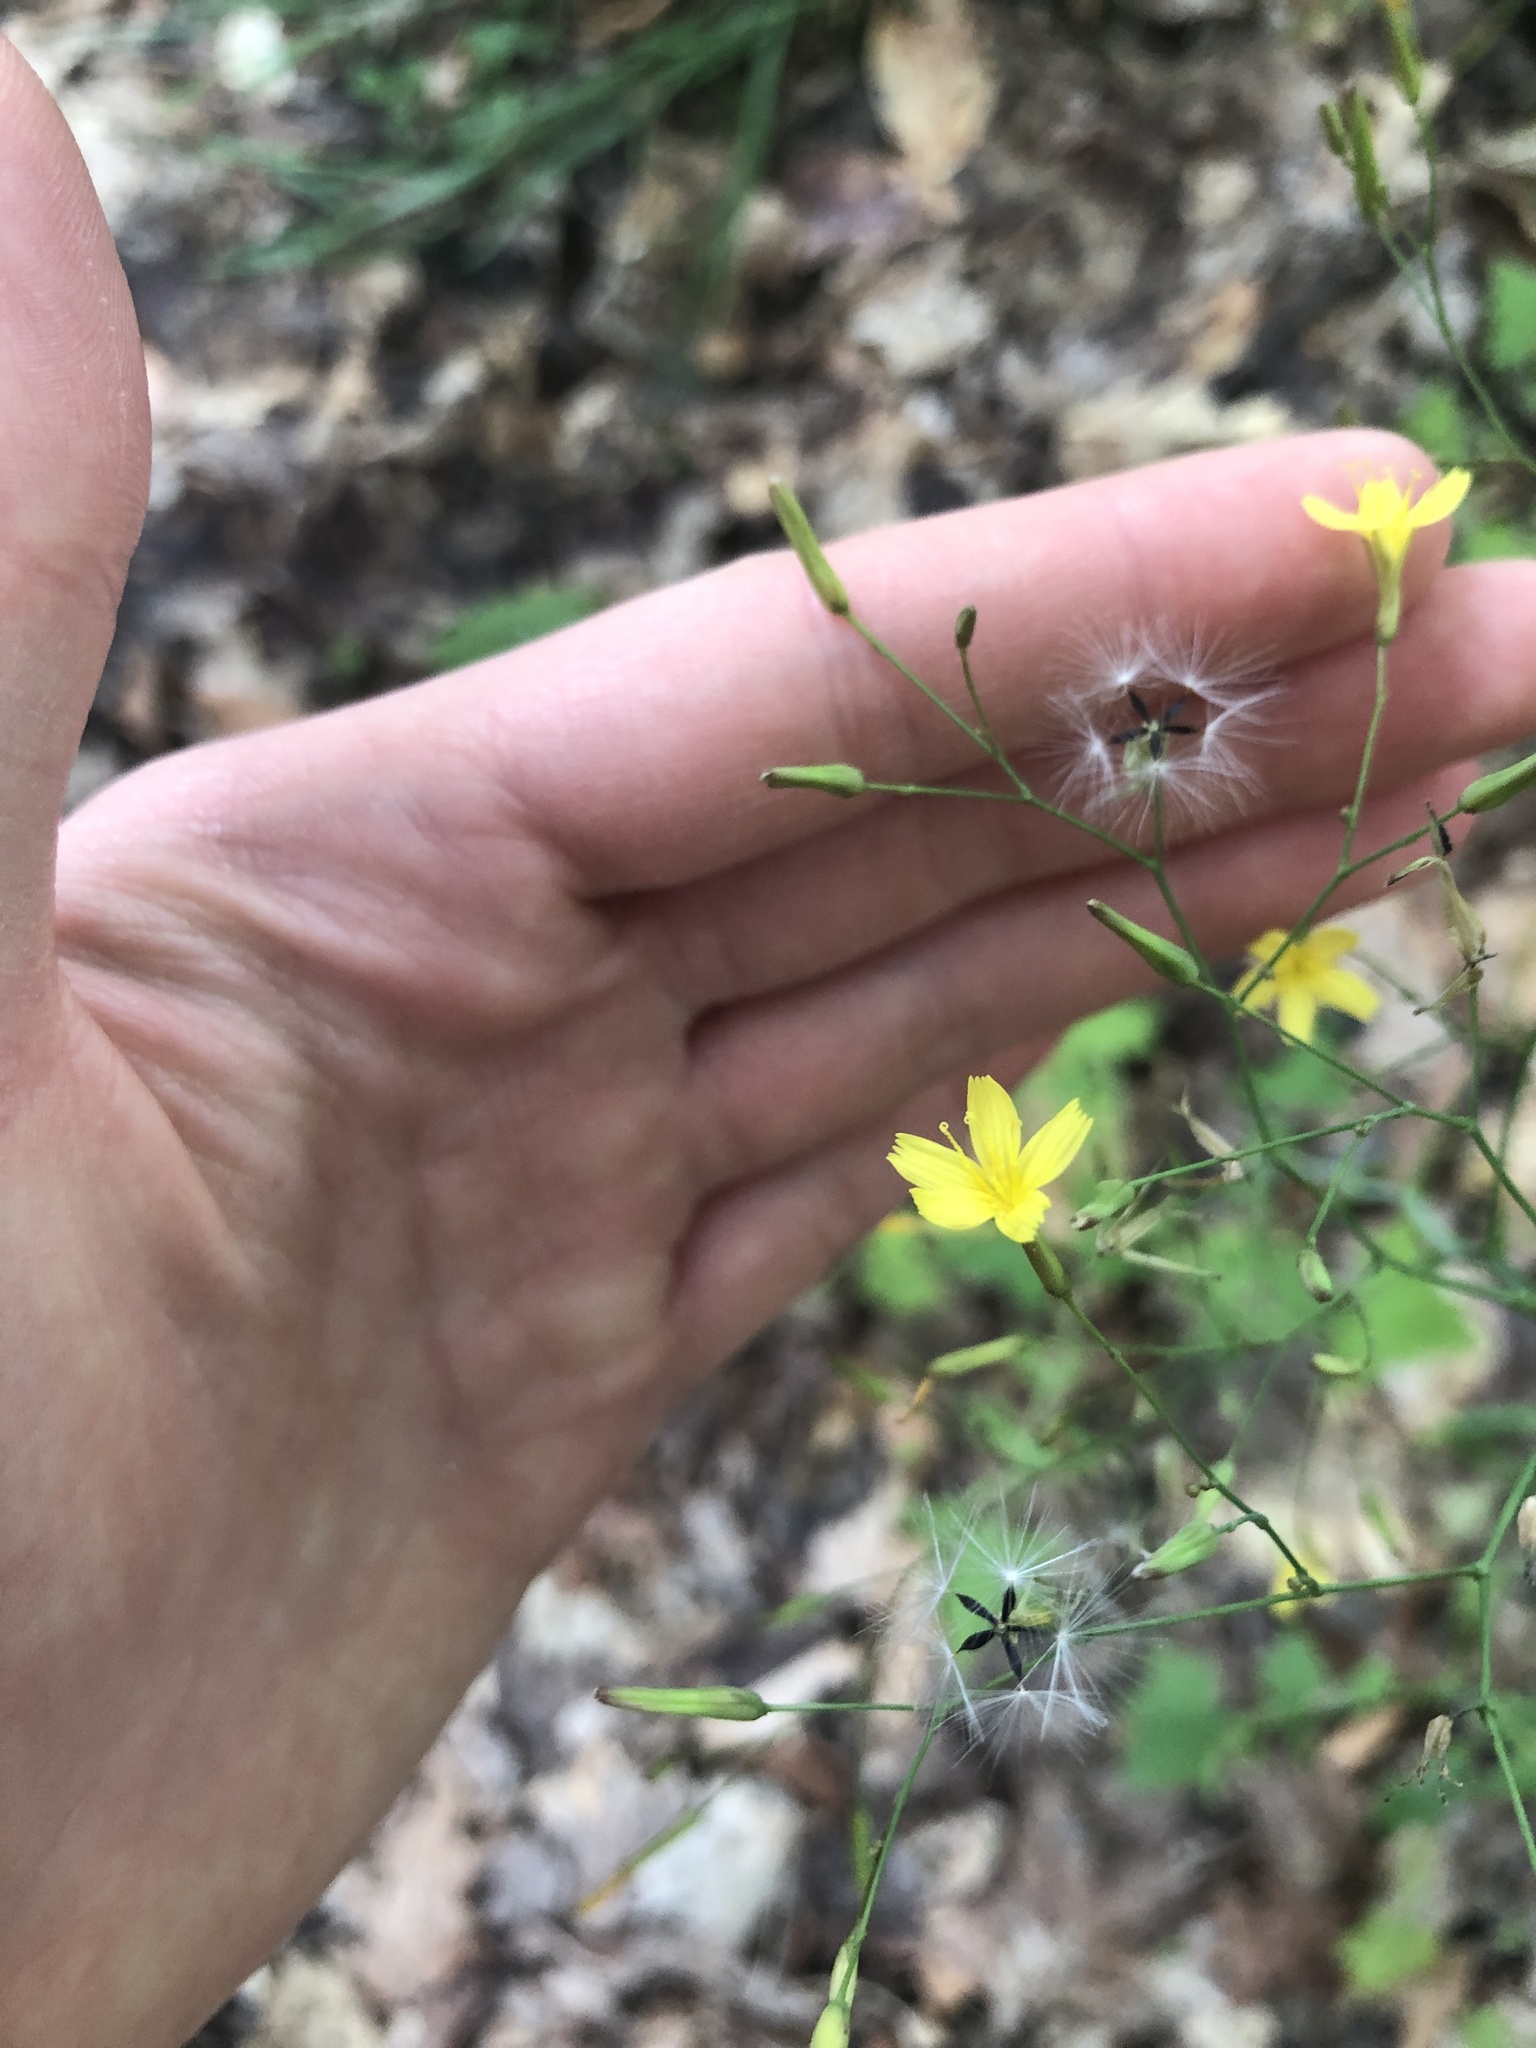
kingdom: Plantae
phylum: Tracheophyta
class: Magnoliopsida
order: Asterales
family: Asteraceae
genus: Mycelis
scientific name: Mycelis muralis
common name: Wall lettuce
